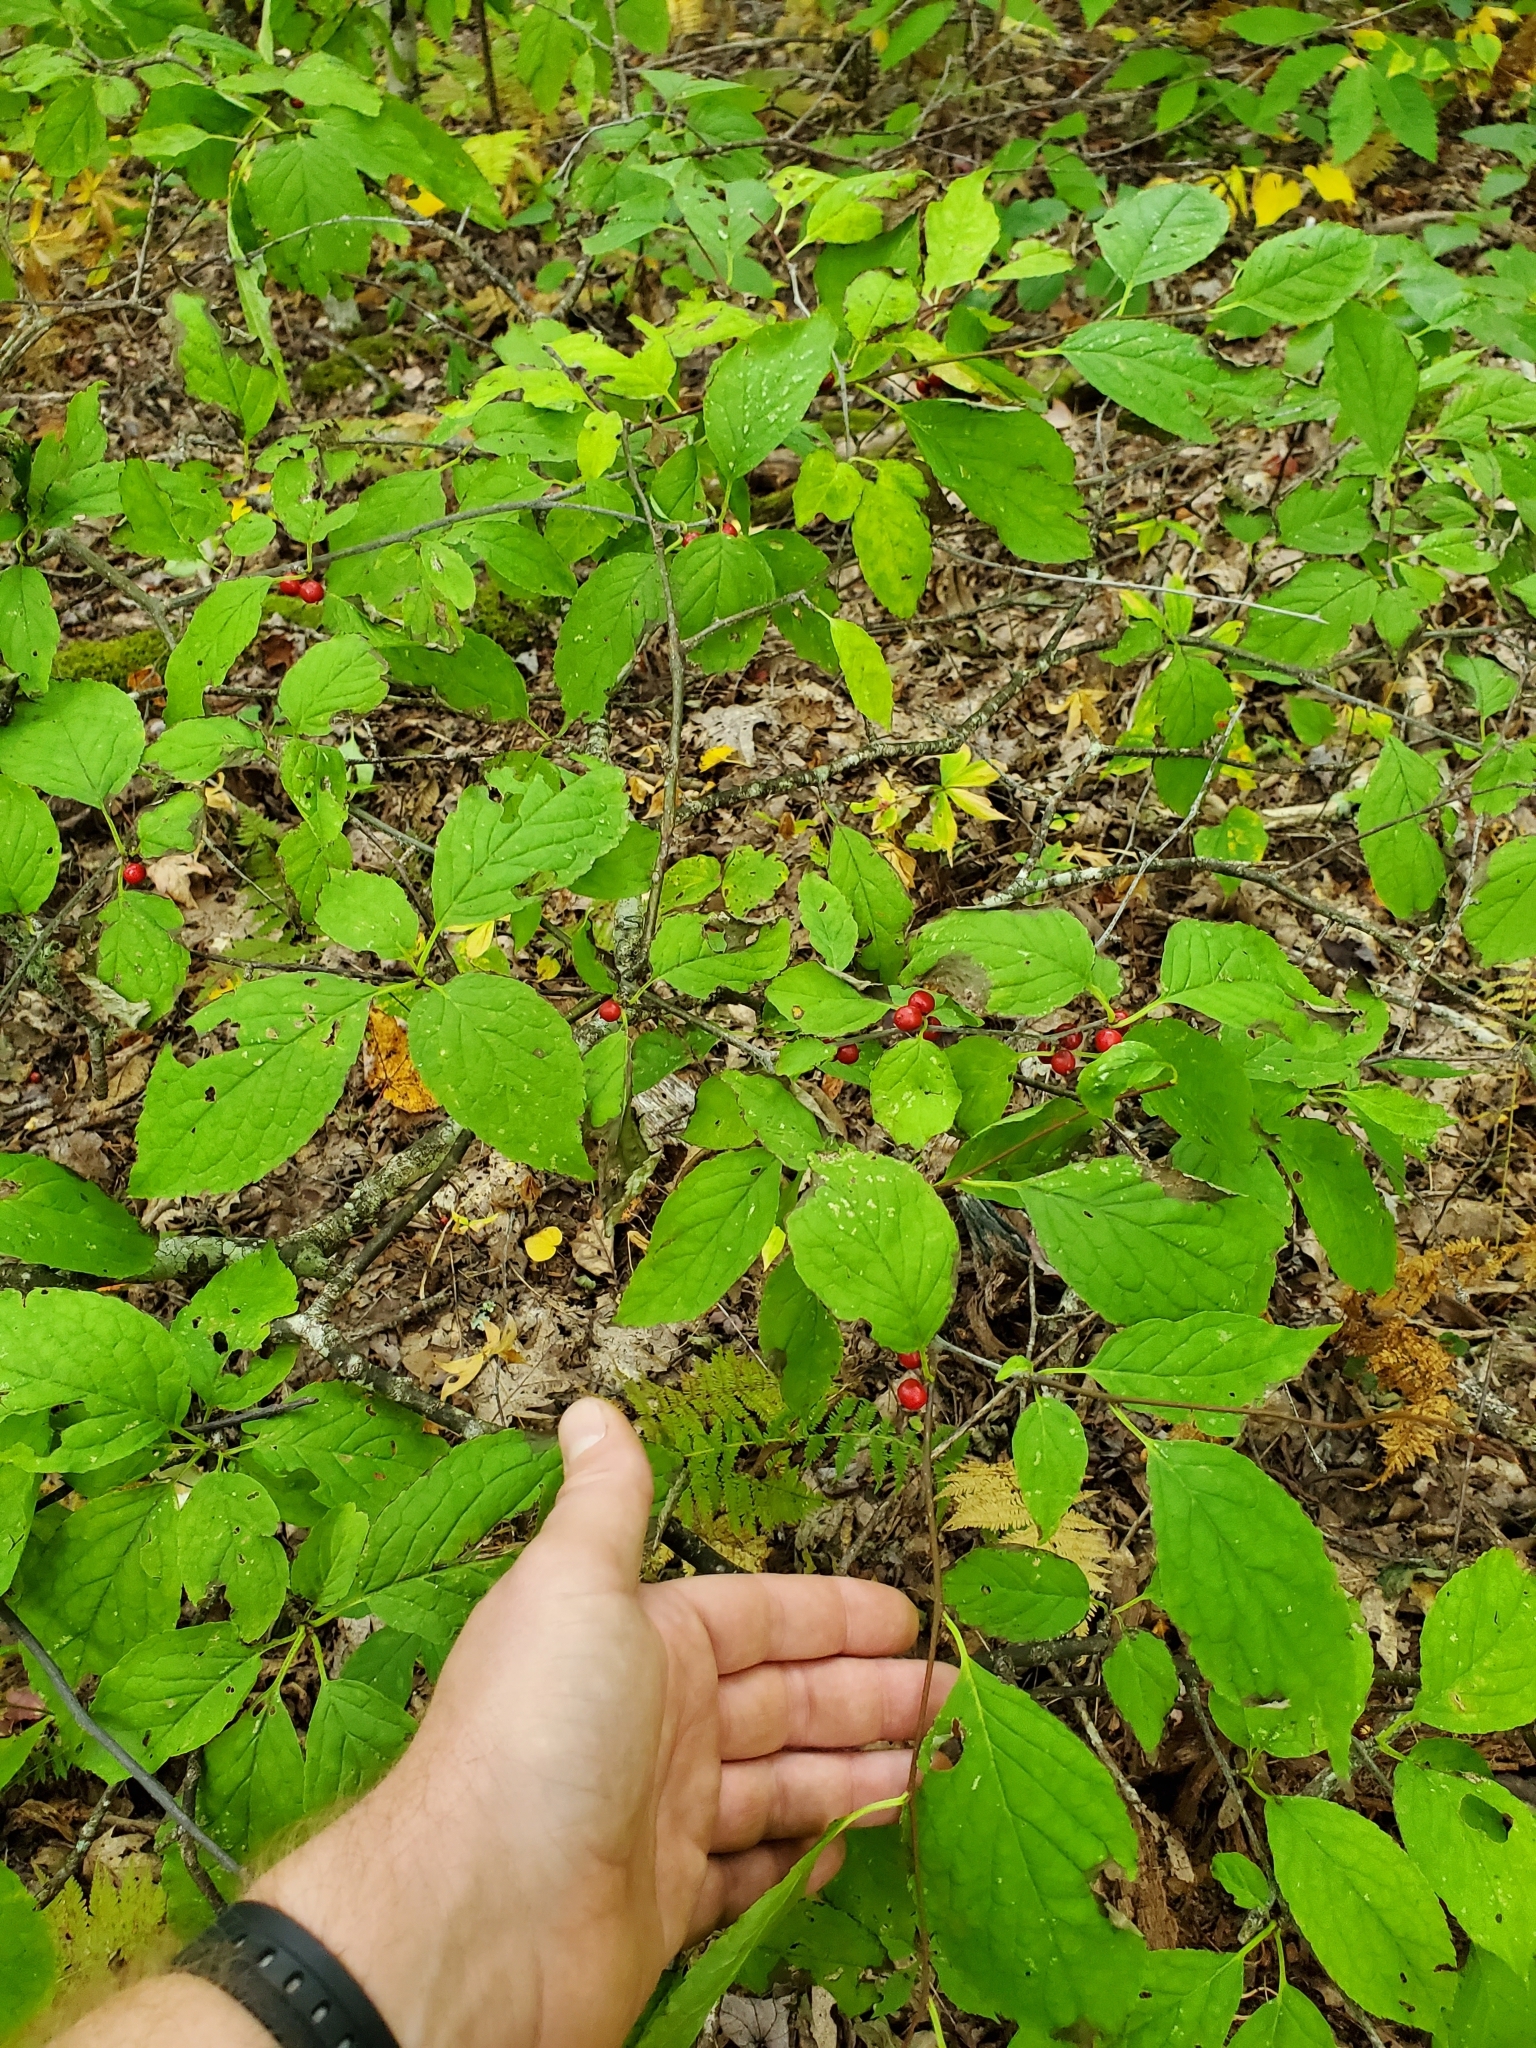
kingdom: Plantae
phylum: Tracheophyta
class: Magnoliopsida
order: Aquifoliales
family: Aquifoliaceae
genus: Ilex
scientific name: Ilex montana
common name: Mountain winterberry
